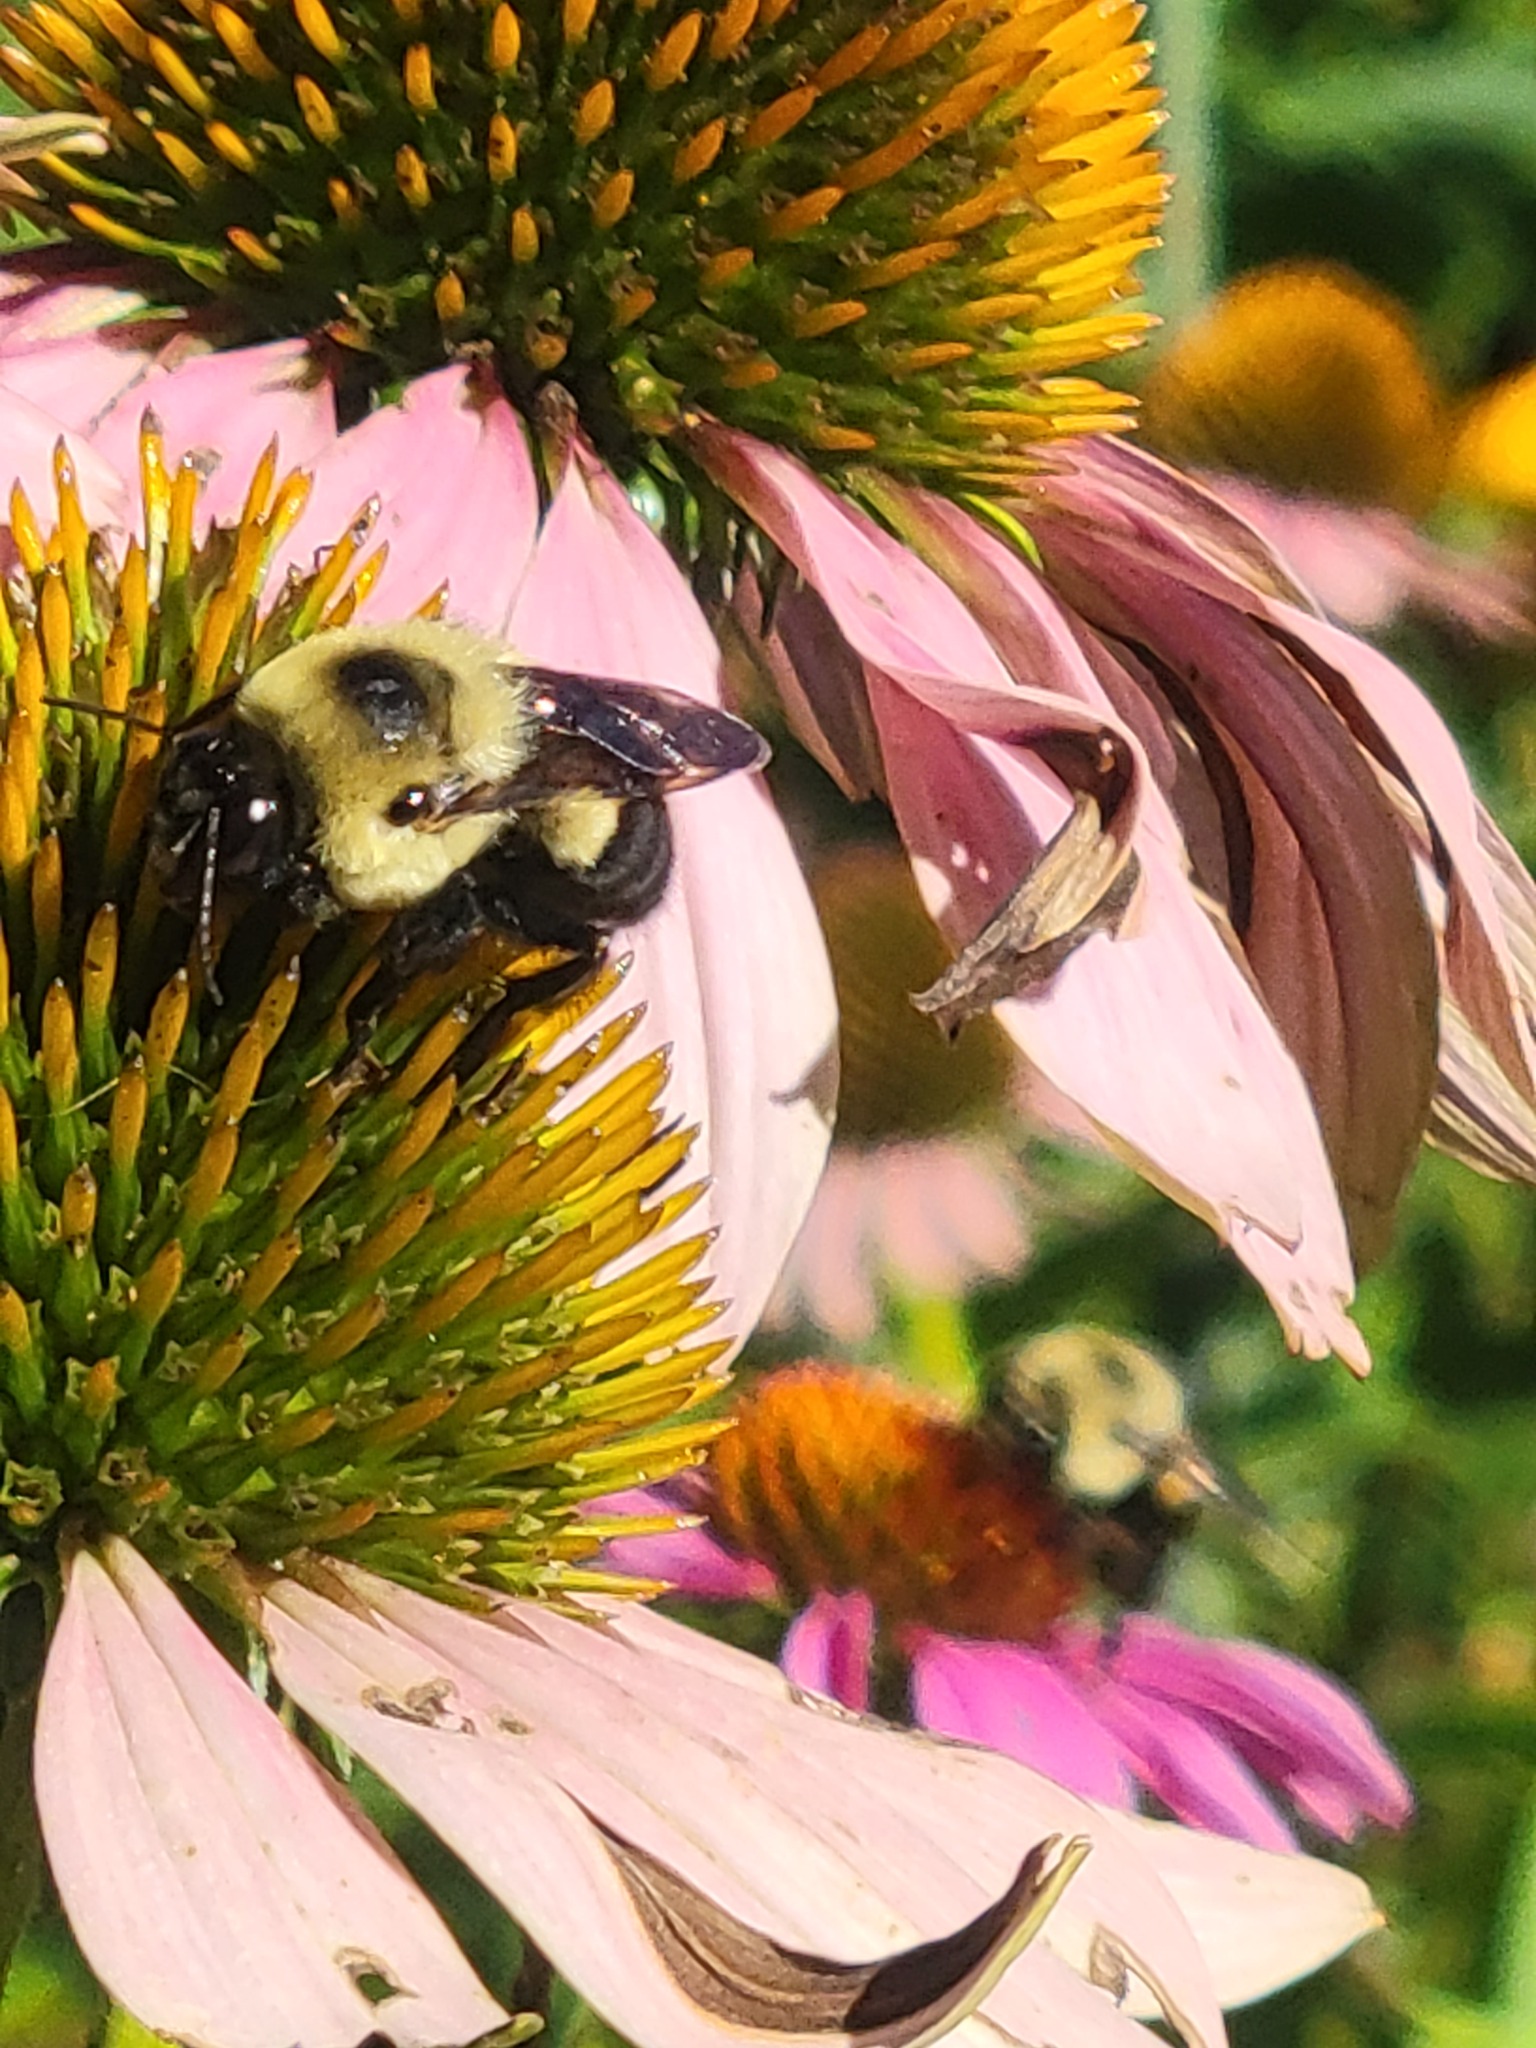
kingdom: Animalia
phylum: Arthropoda
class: Insecta
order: Hymenoptera
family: Apidae
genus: Bombus
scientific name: Bombus griseocollis
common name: Brown-belted bumble bee
